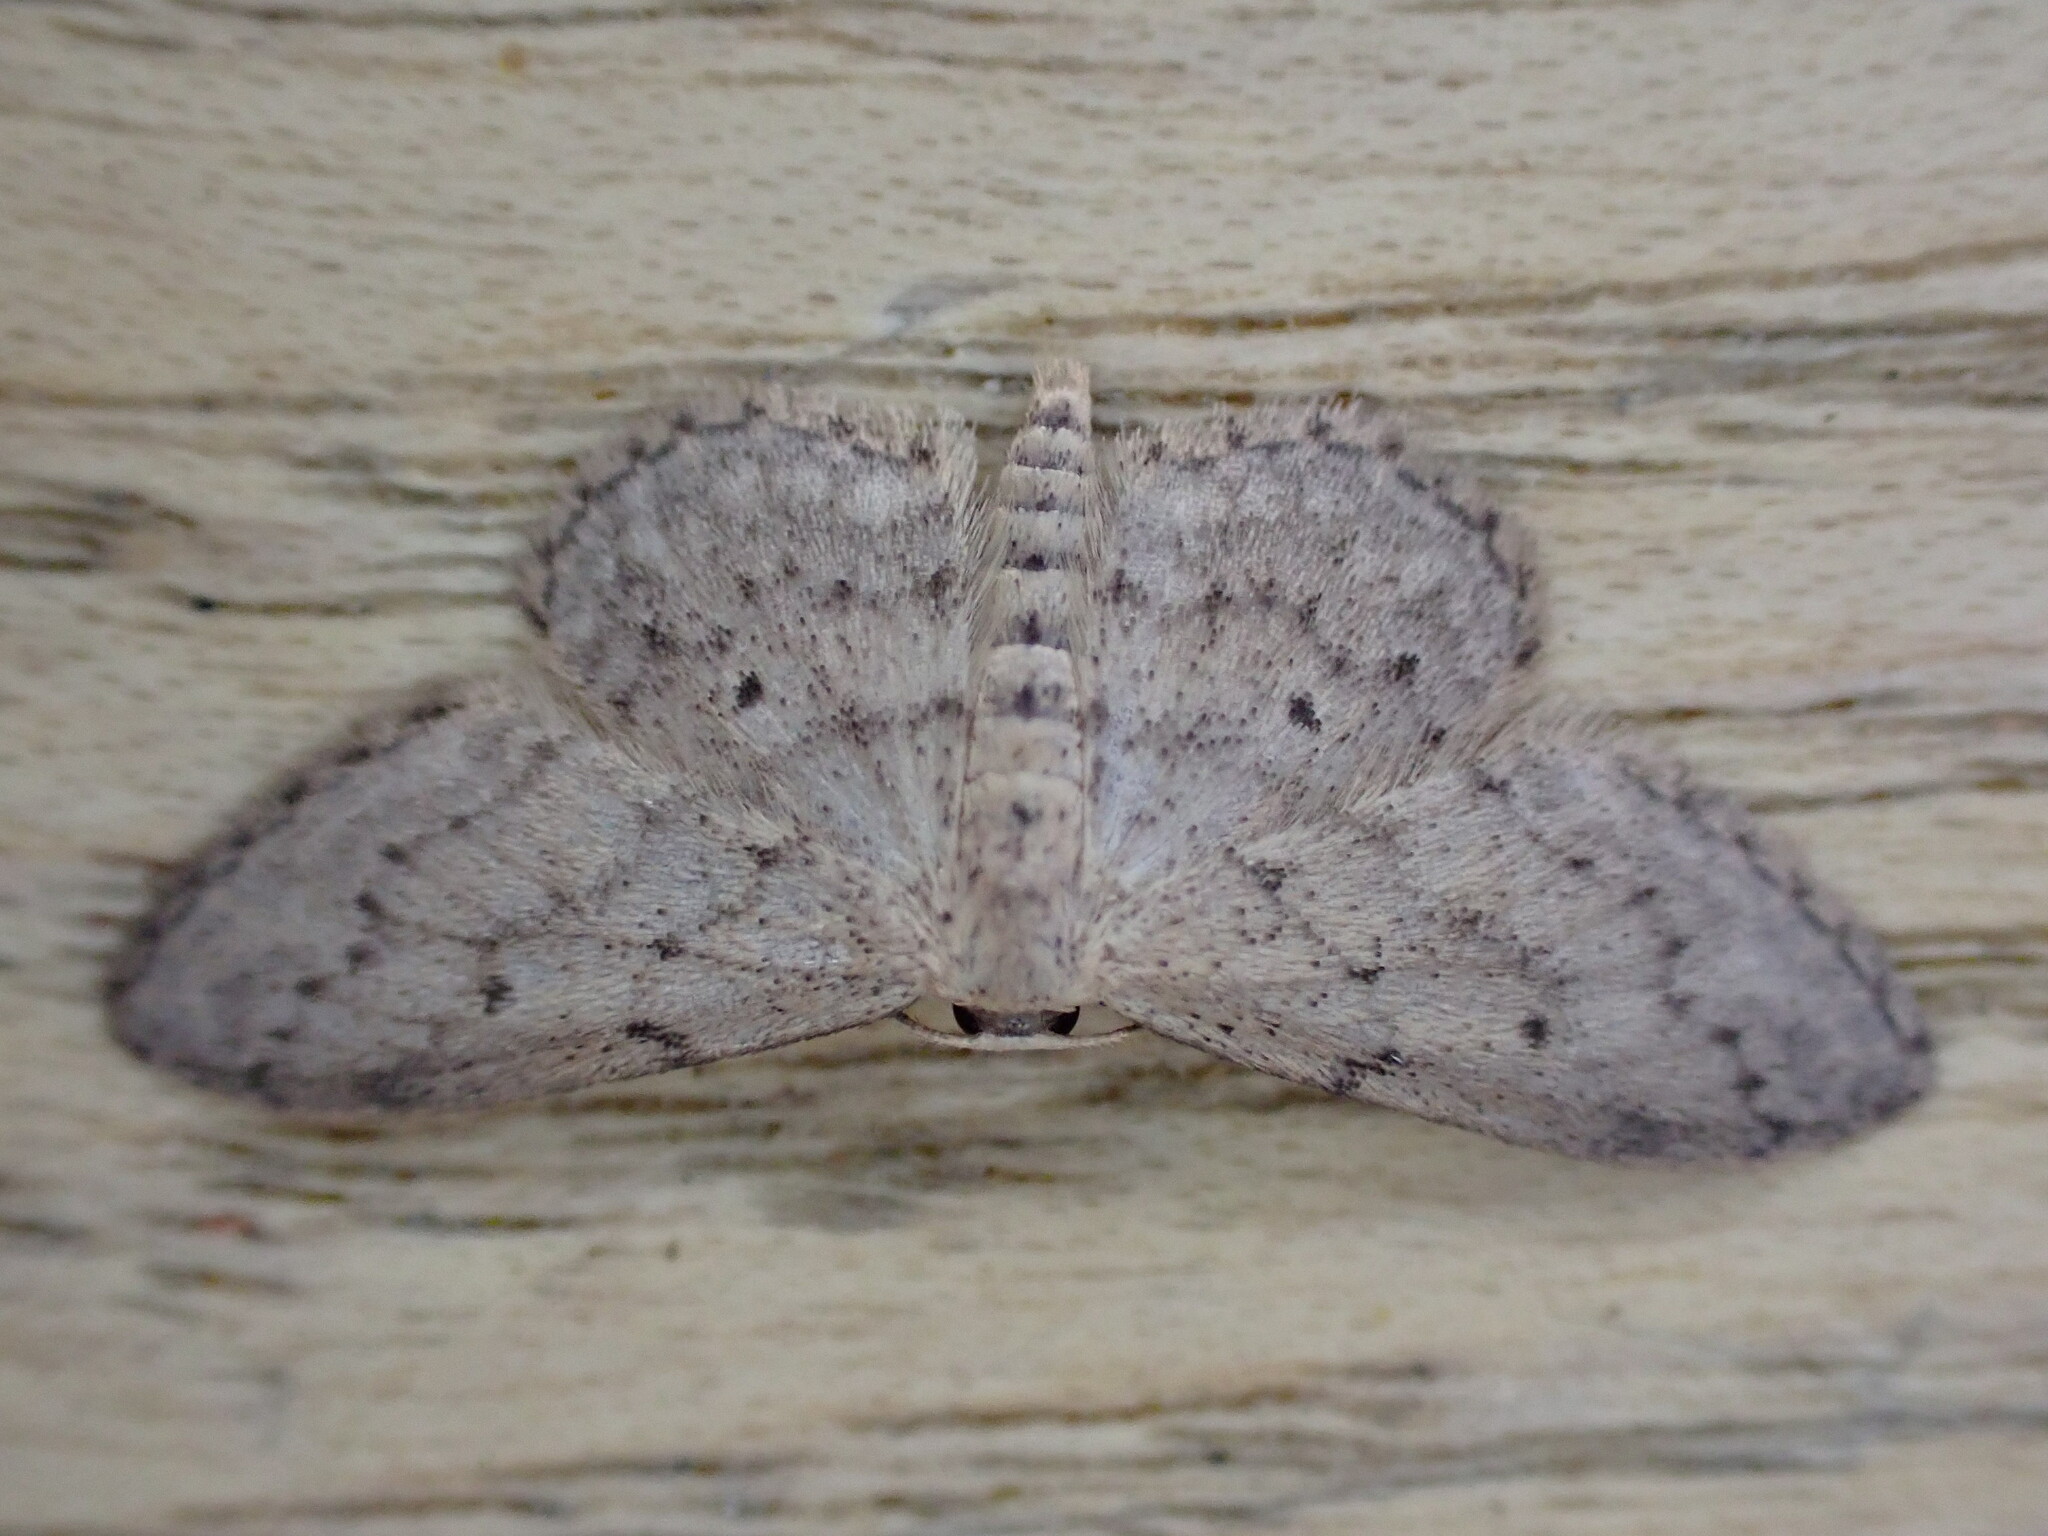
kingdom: Animalia
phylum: Arthropoda
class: Insecta
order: Lepidoptera
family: Geometridae
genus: Idaea
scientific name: Idaea seriata
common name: Small dusty wave
